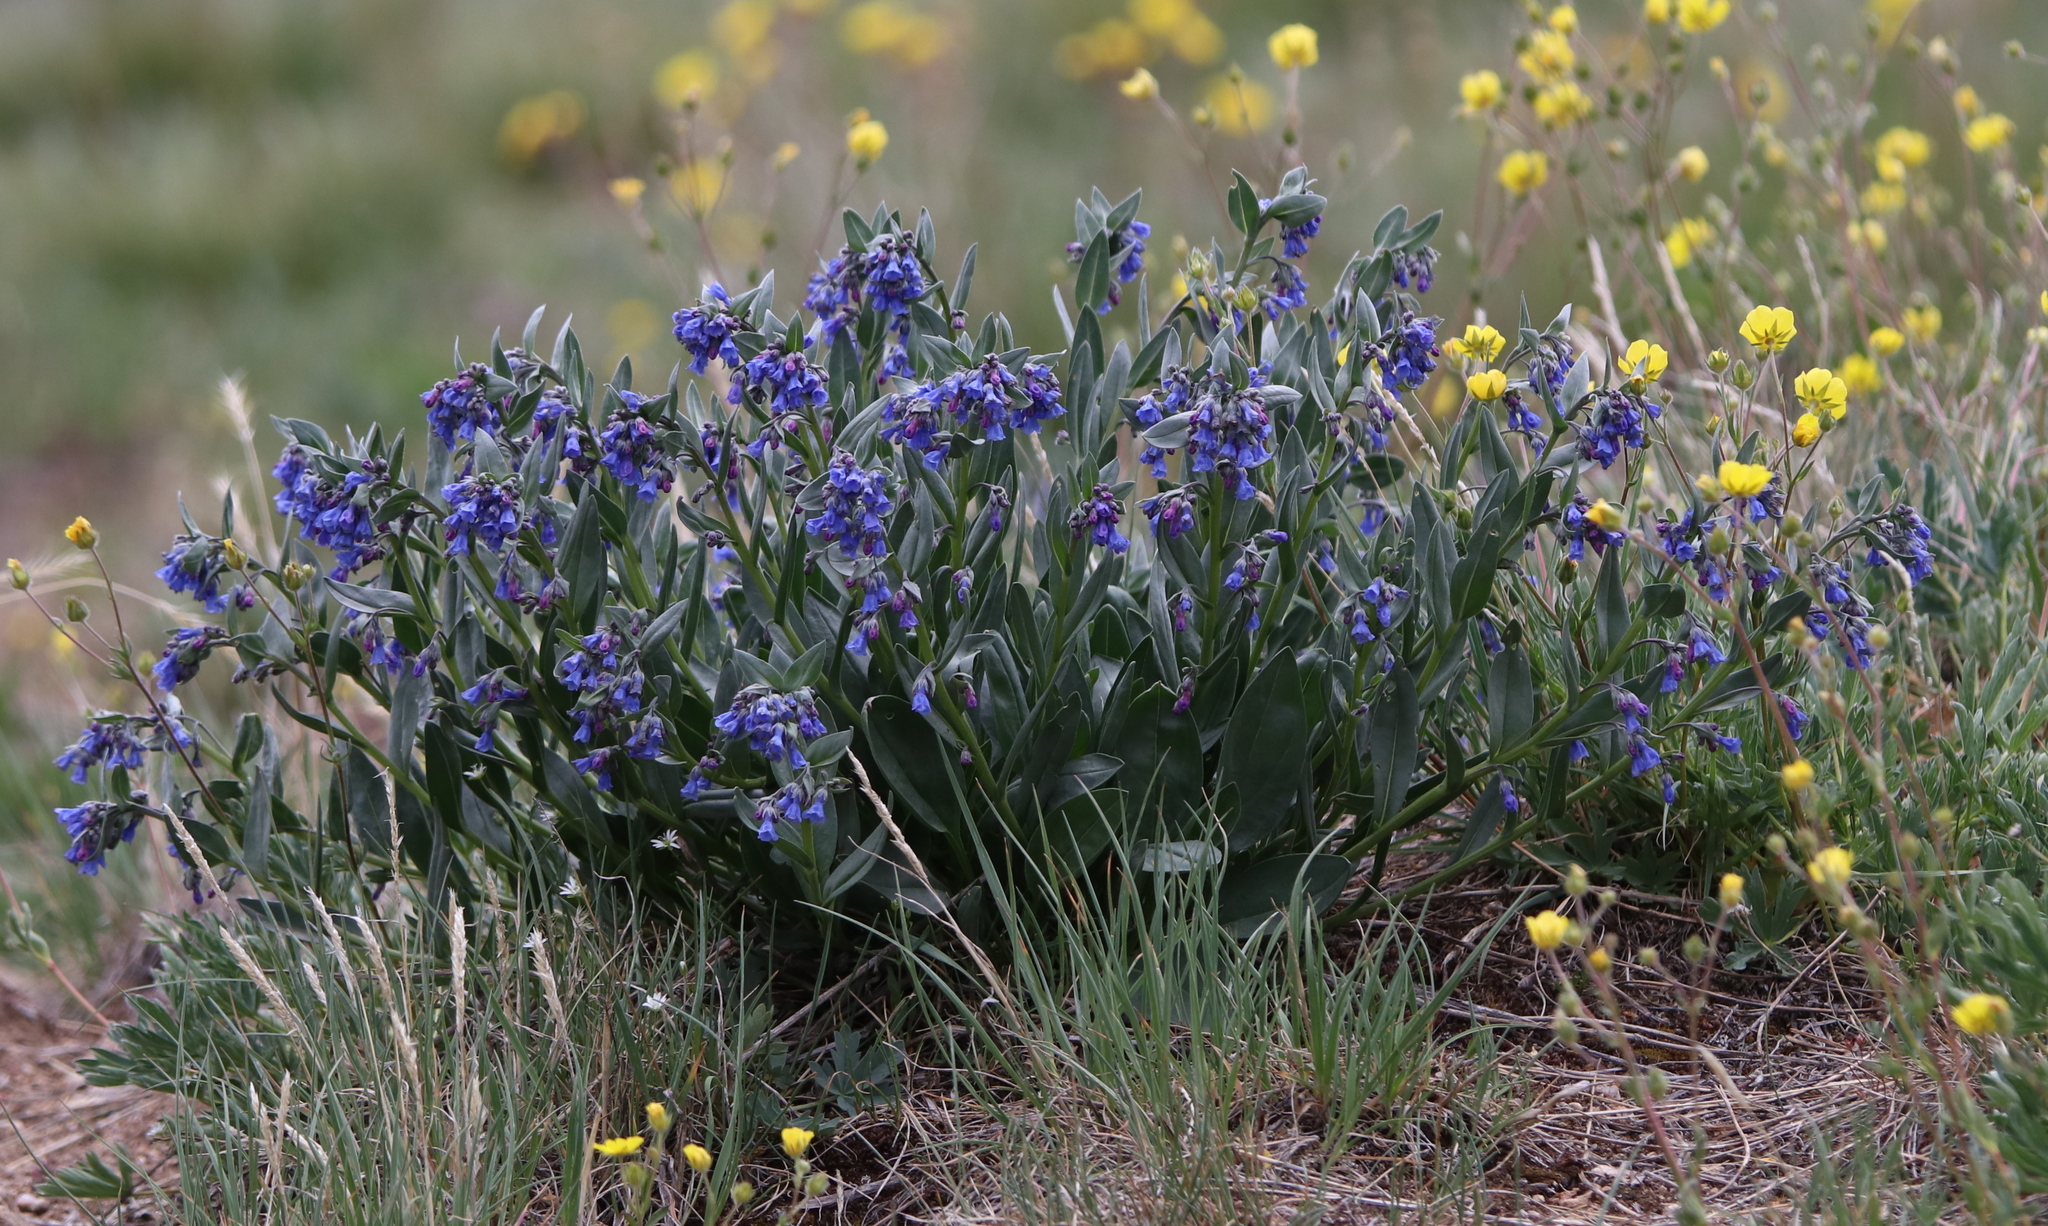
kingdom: Plantae
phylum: Tracheophyta
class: Magnoliopsida
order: Boraginales
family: Boraginaceae
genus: Mertensia
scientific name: Mertensia lanceolata
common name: Lance-leaved bluebells
